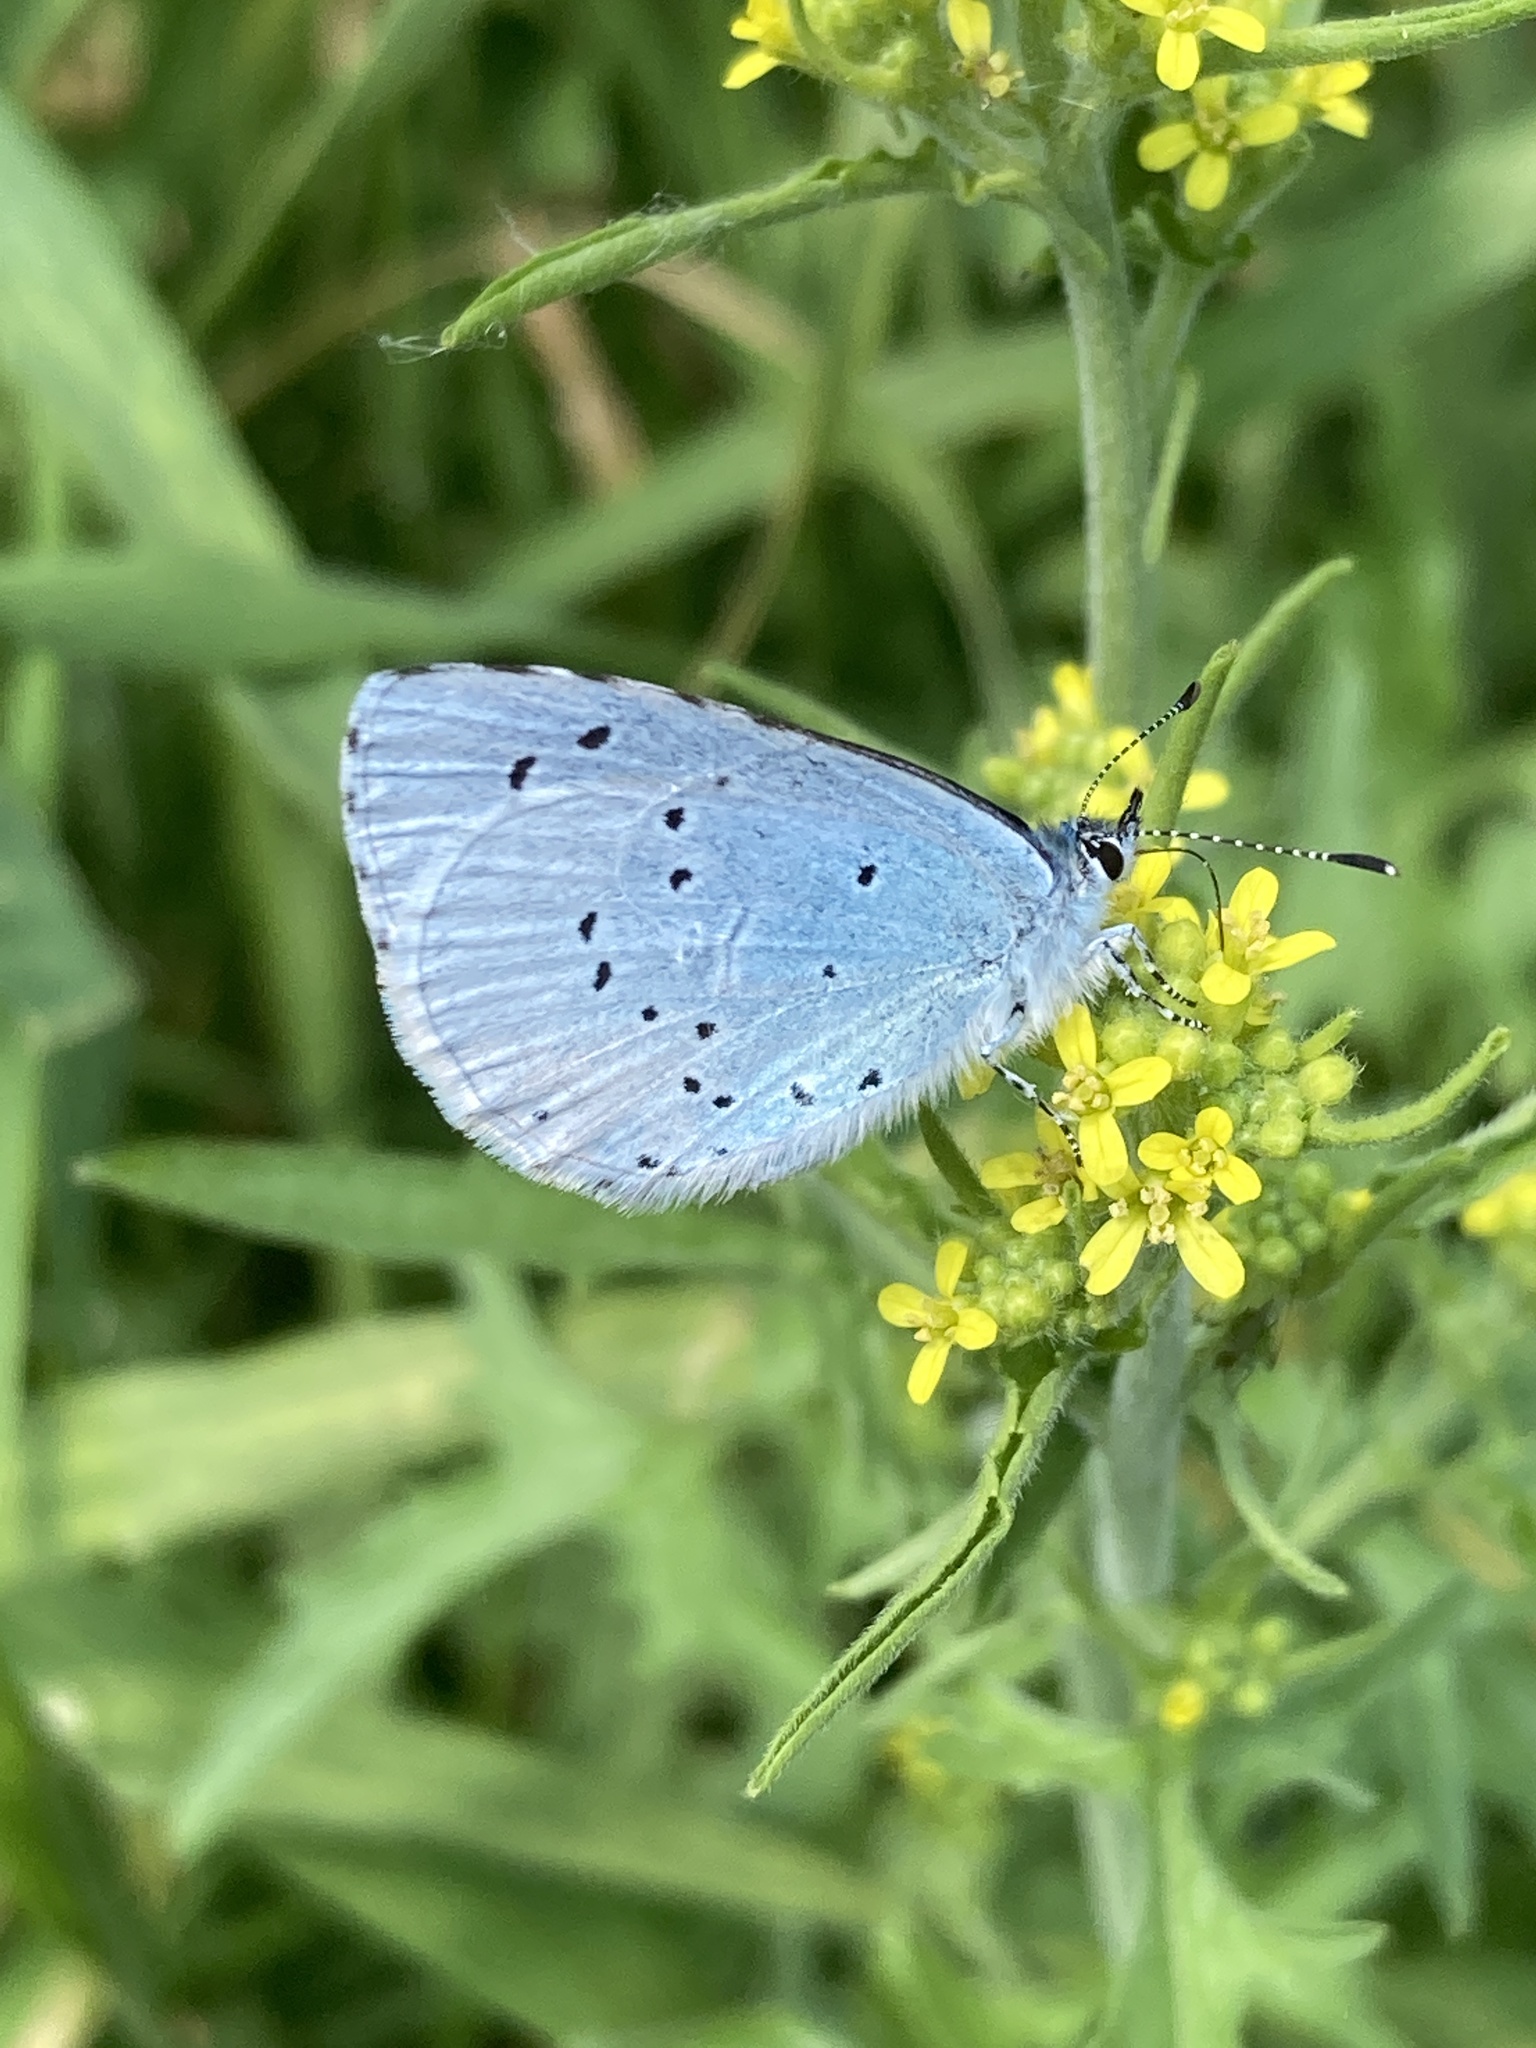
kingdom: Animalia
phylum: Arthropoda
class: Insecta
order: Lepidoptera
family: Lycaenidae
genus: Celastrina
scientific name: Celastrina argiolus
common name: Holly blue
